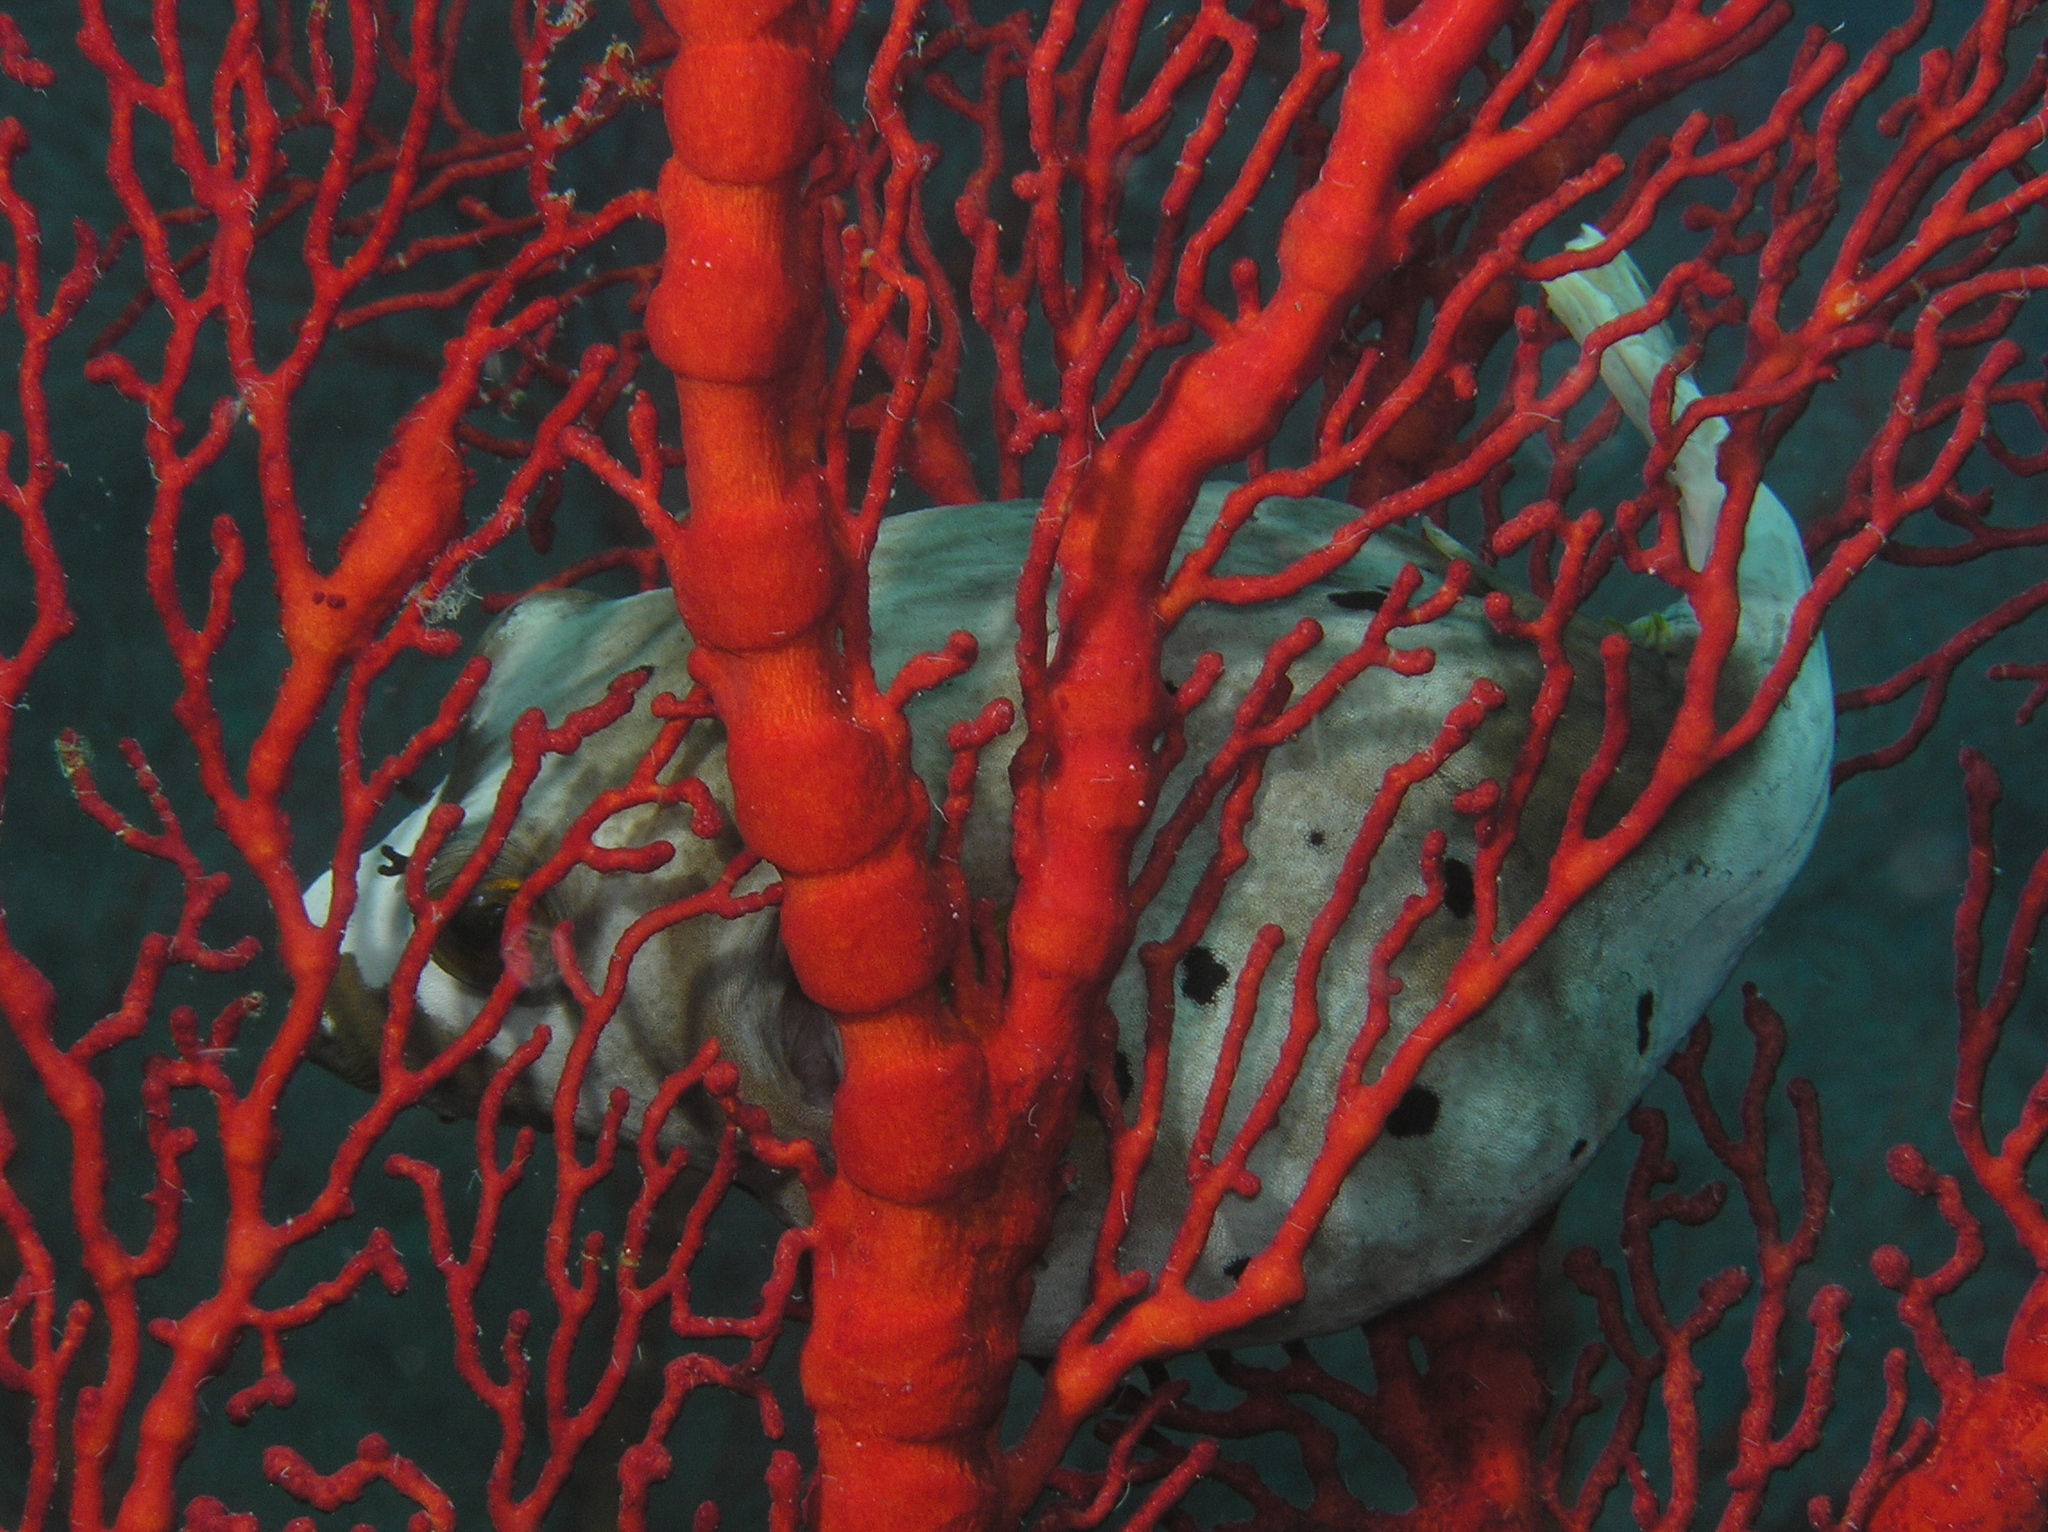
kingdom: Animalia
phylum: Chordata
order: Tetraodontiformes
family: Tetraodontidae
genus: Arothron
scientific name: Arothron nigropunctatus
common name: Black spotted blow fish
